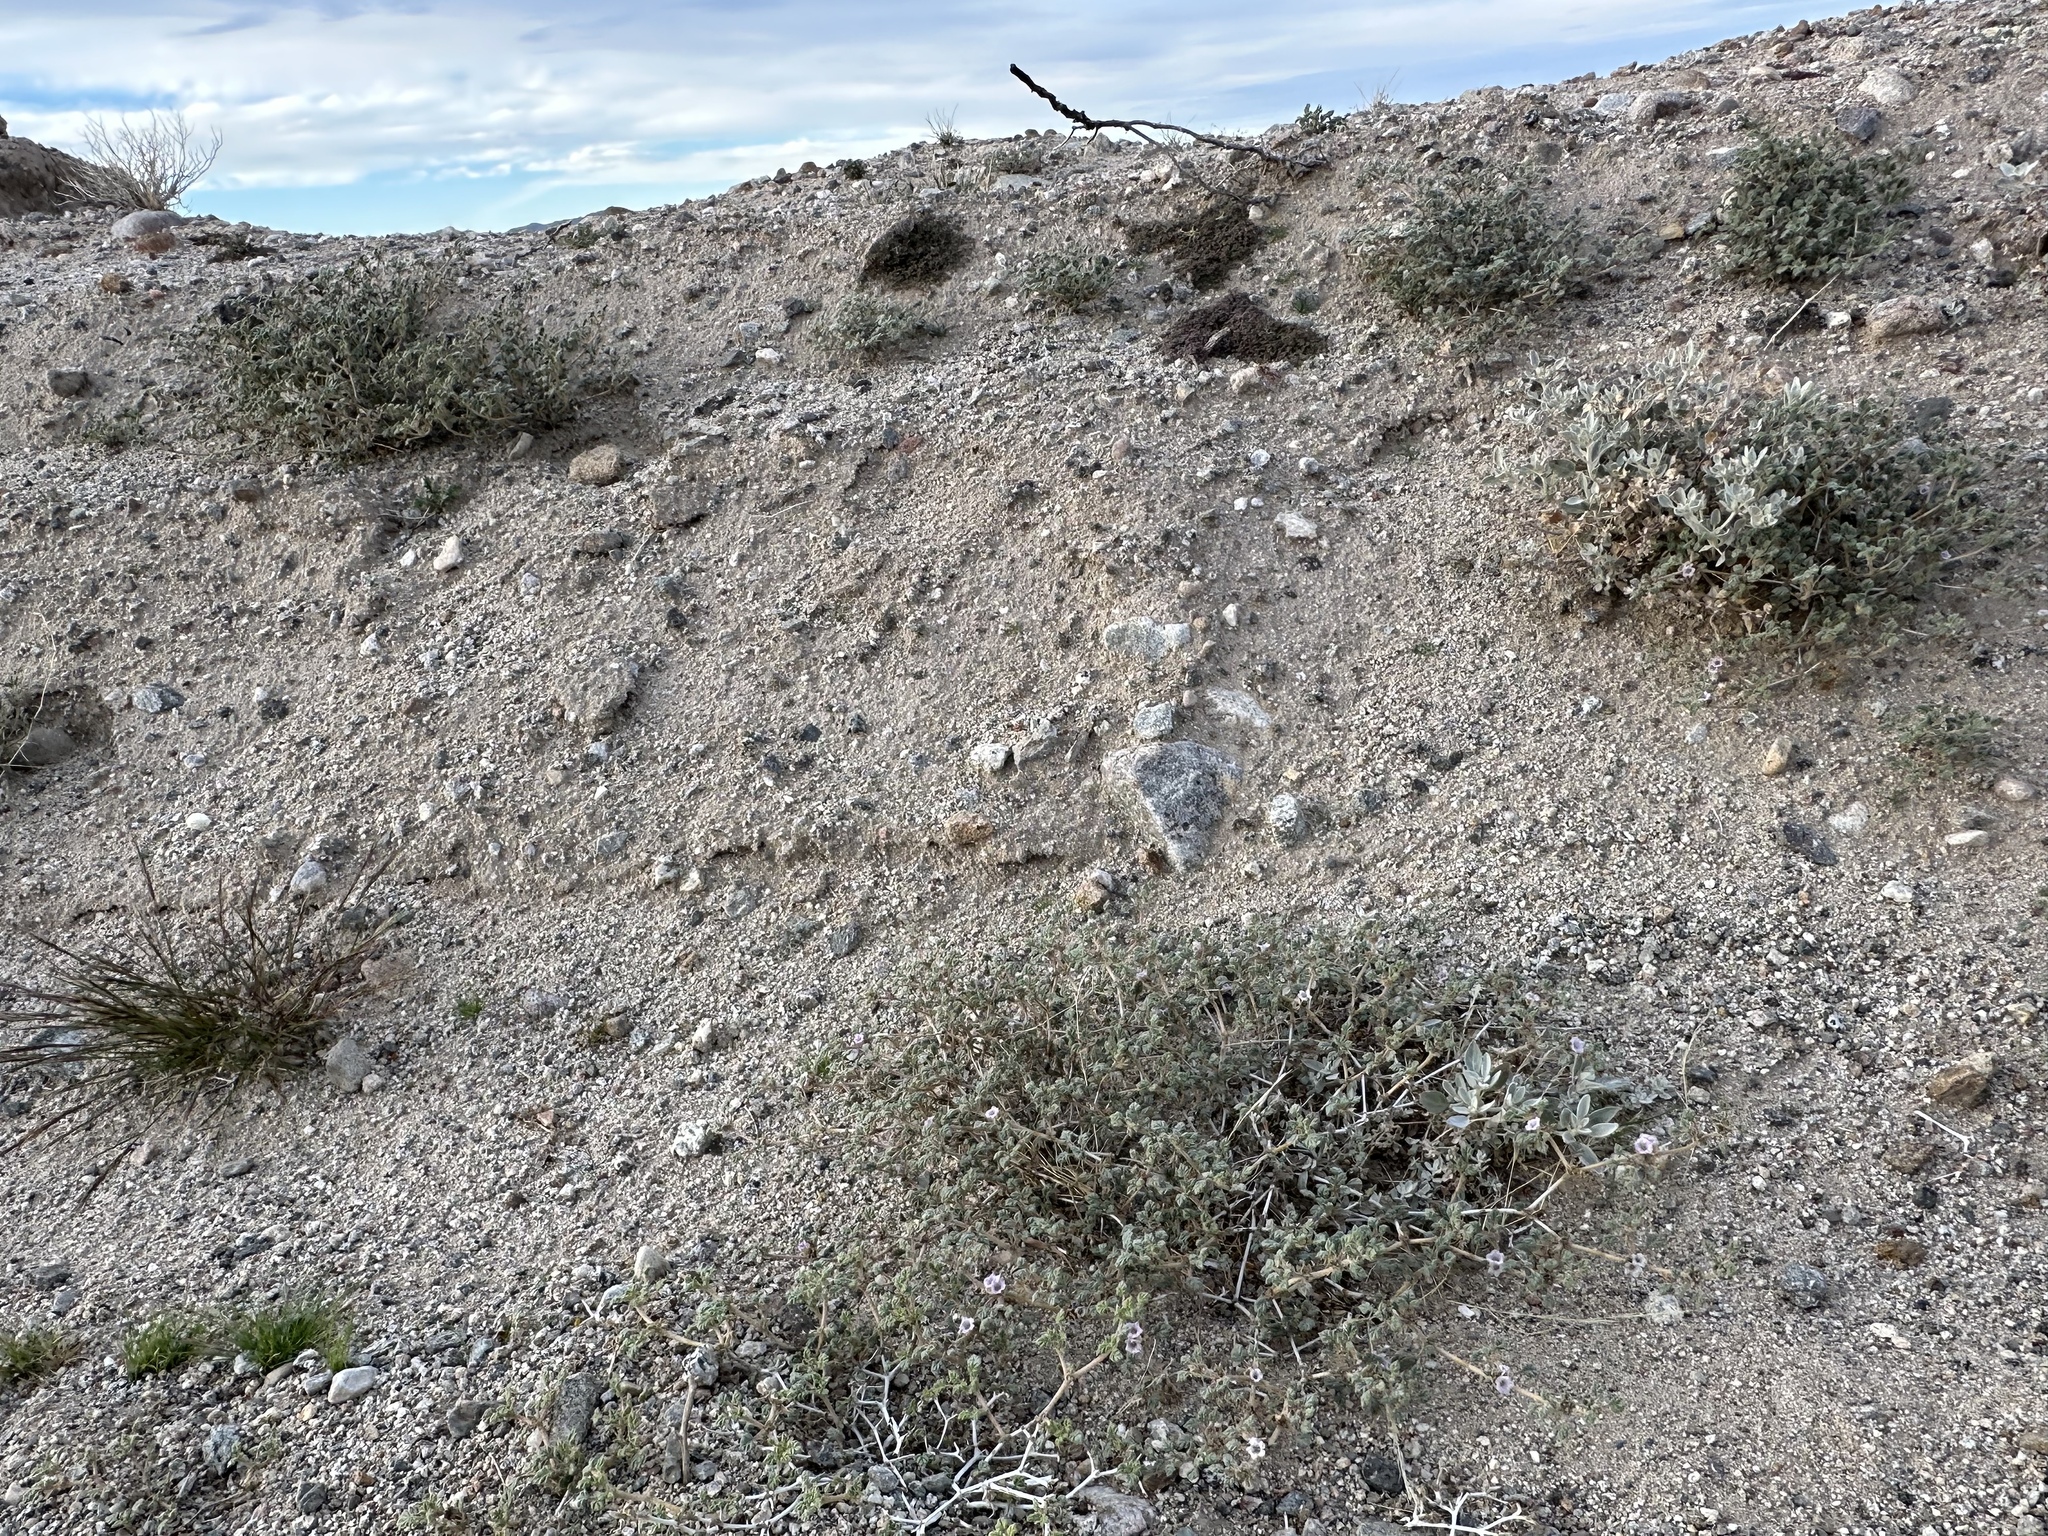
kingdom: Plantae
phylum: Tracheophyta
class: Magnoliopsida
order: Boraginales
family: Ehretiaceae
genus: Tiquilia
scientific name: Tiquilia palmeri
